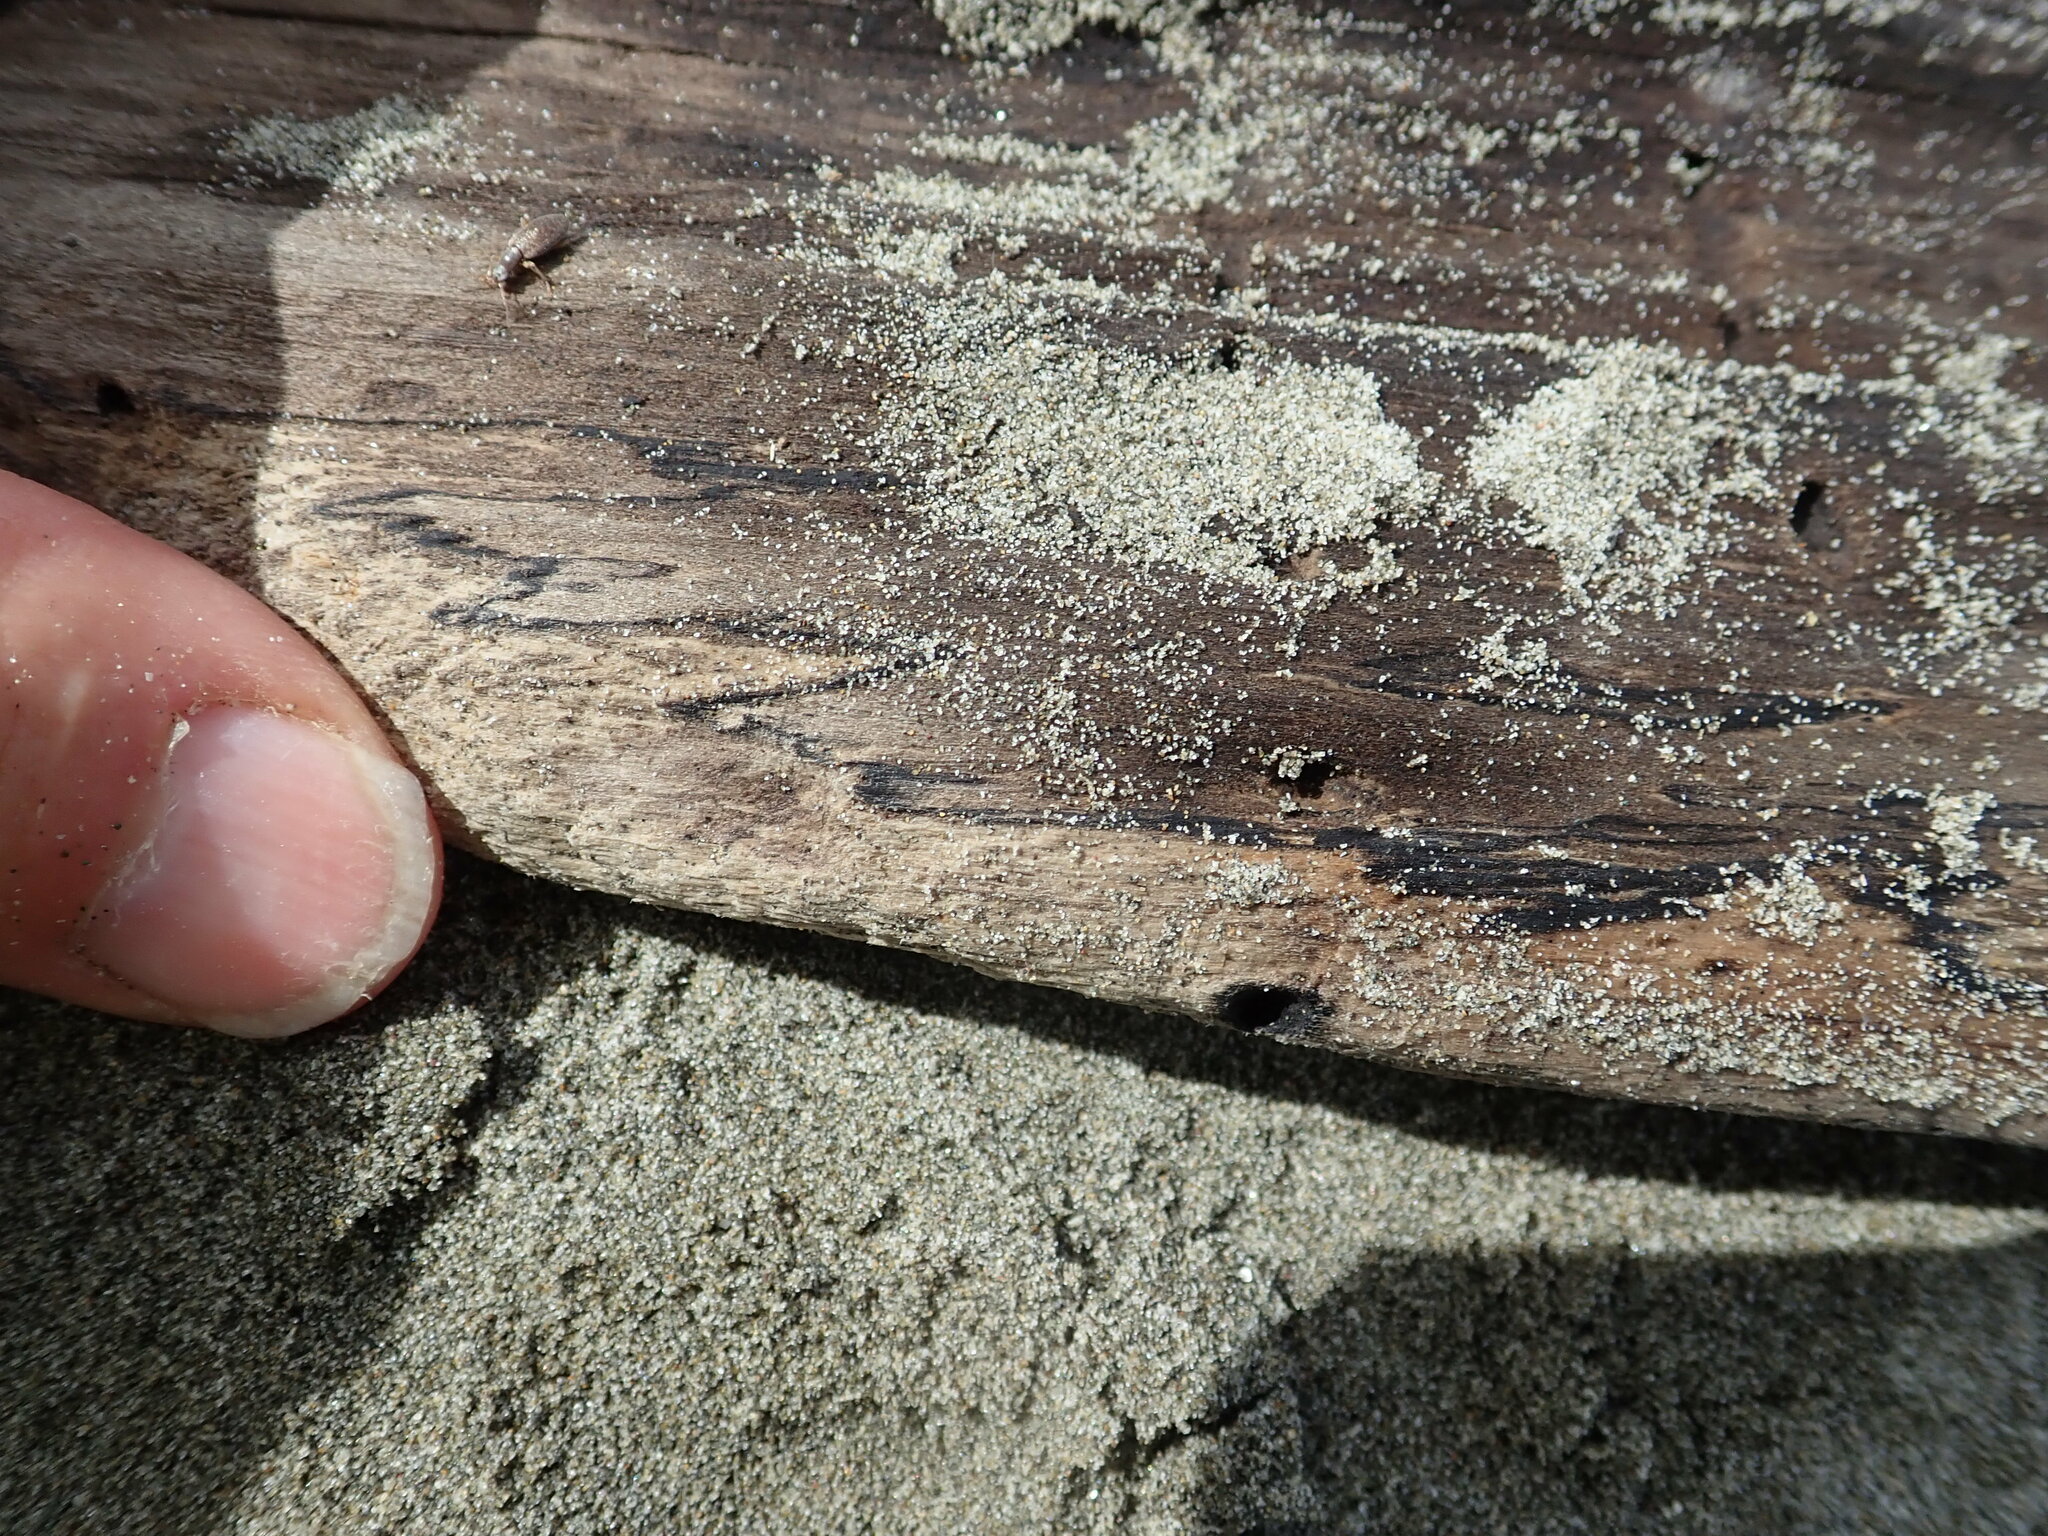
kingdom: Animalia
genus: Lagrioda
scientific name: Lagrioda brounii
